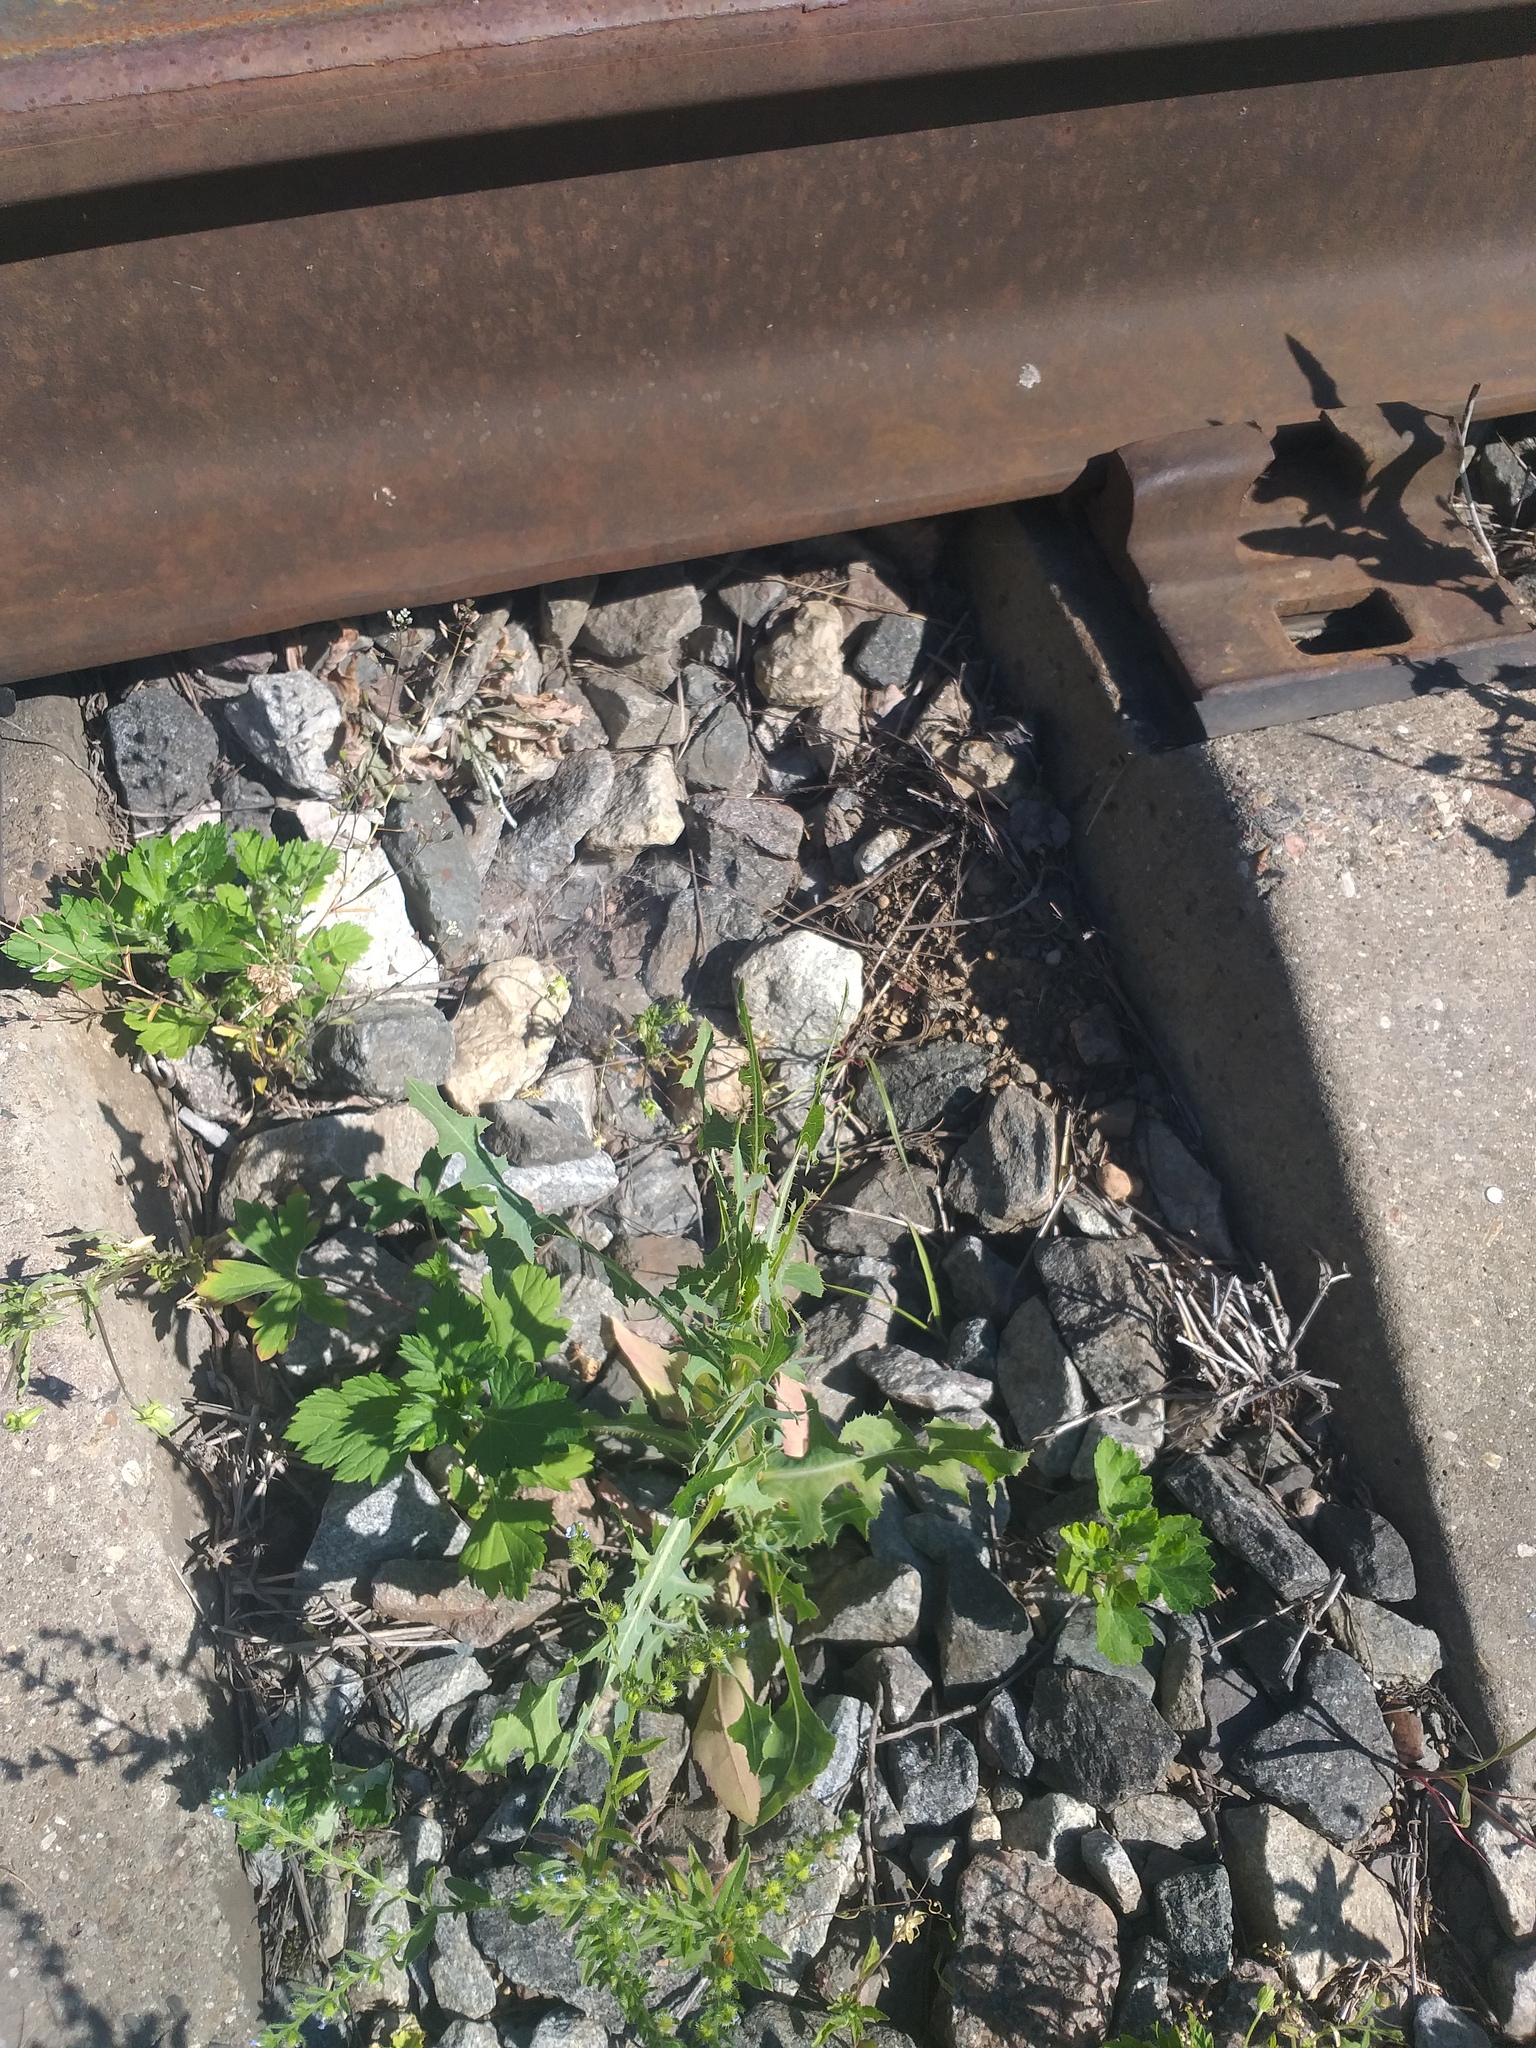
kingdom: Plantae
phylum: Tracheophyta
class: Magnoliopsida
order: Asterales
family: Asteraceae
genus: Lactuca
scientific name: Lactuca serriola
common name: Prickly lettuce
